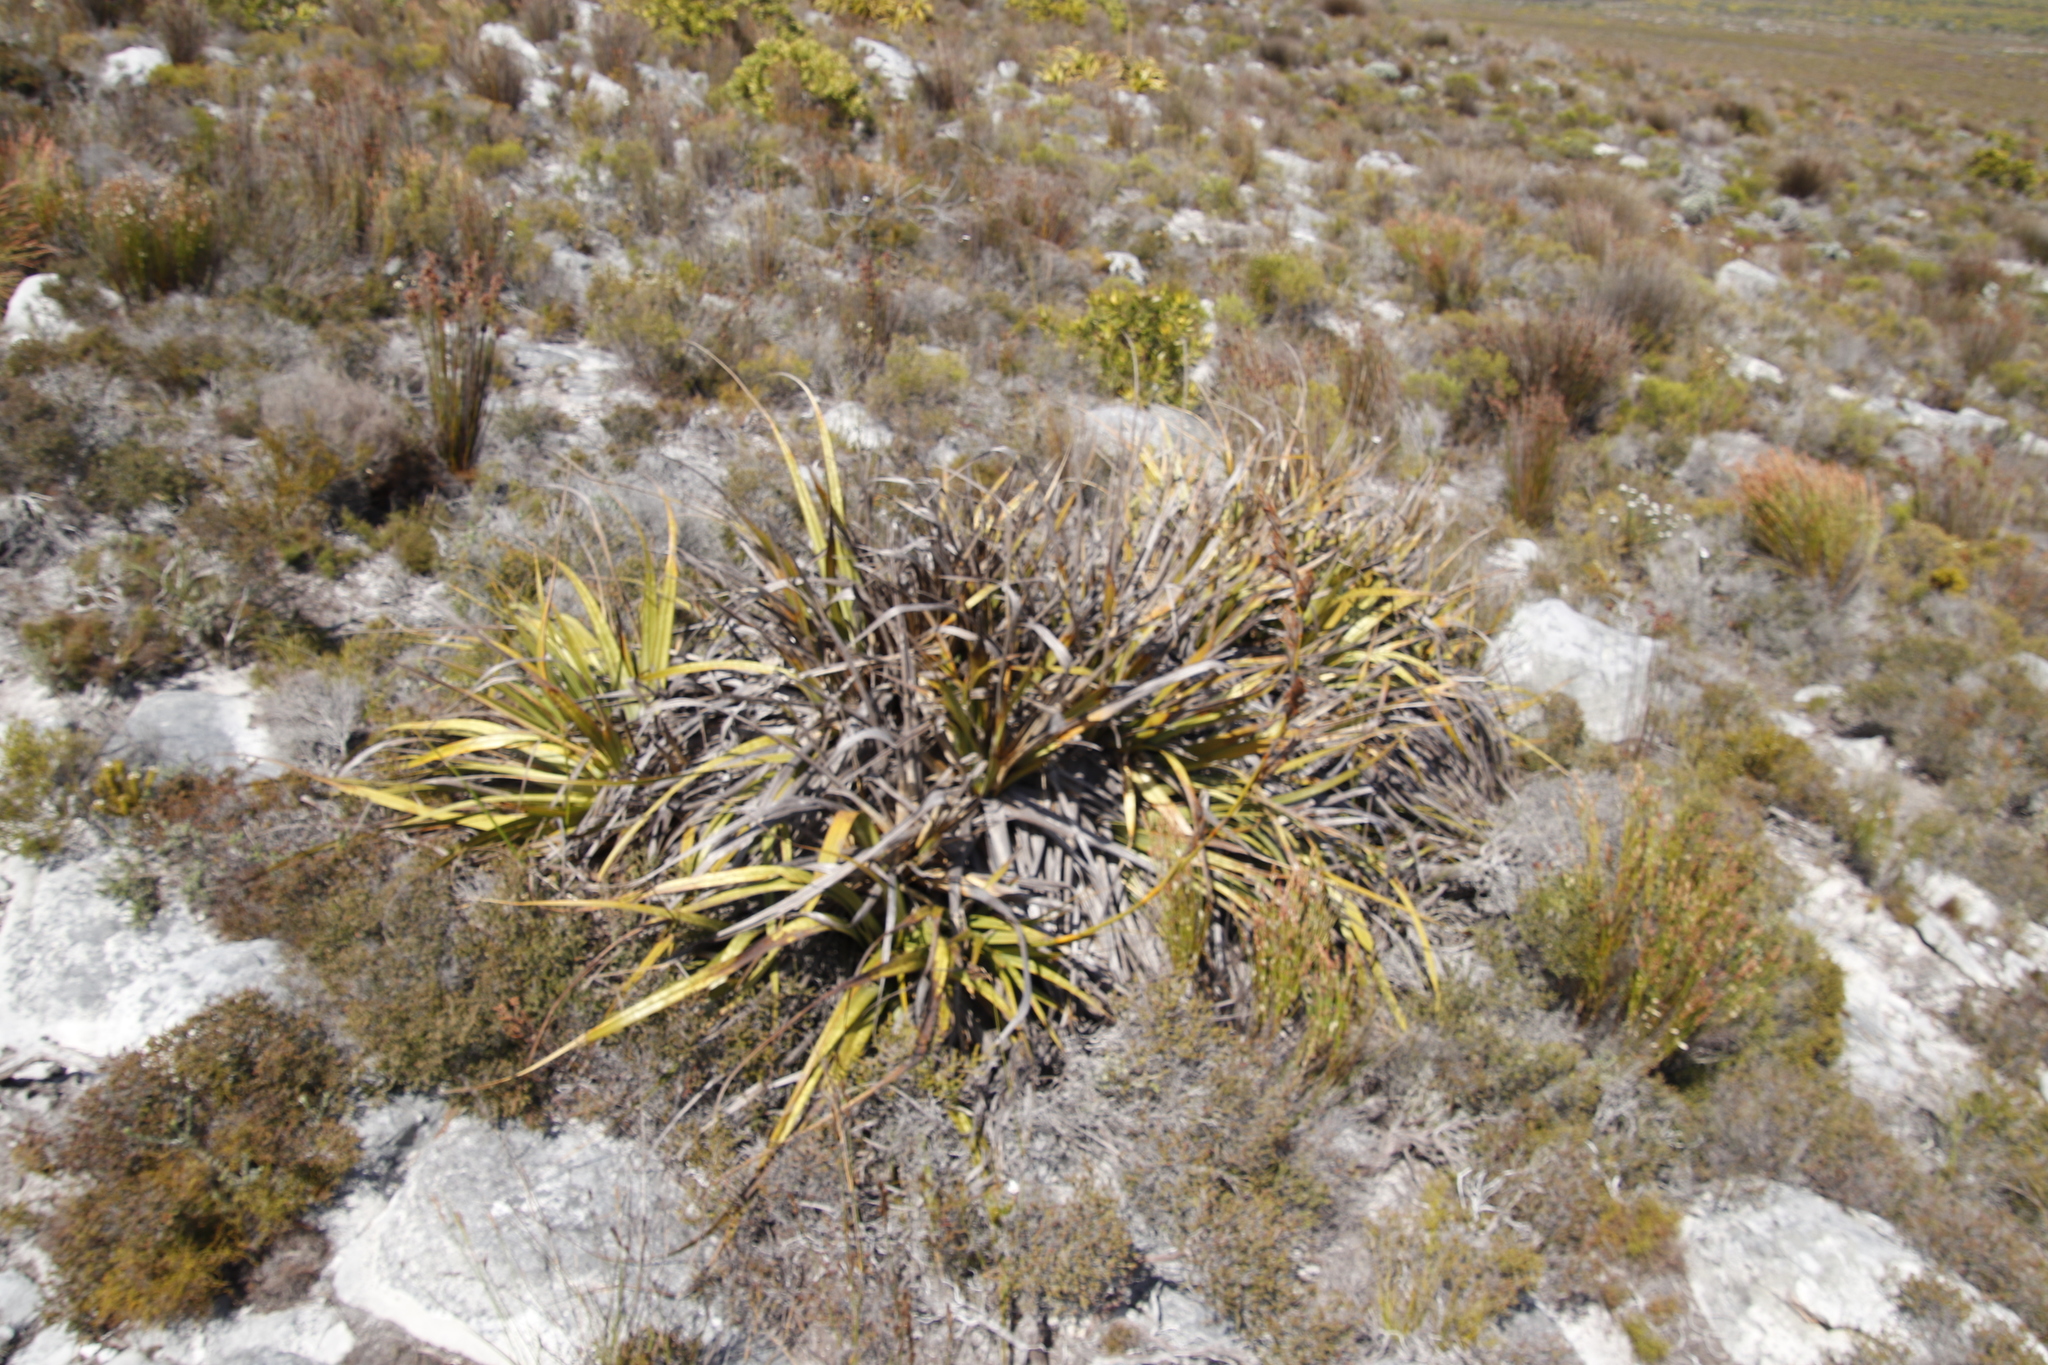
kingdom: Plantae
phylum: Tracheophyta
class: Liliopsida
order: Poales
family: Cyperaceae
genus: Tetraria
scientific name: Tetraria thermalis
